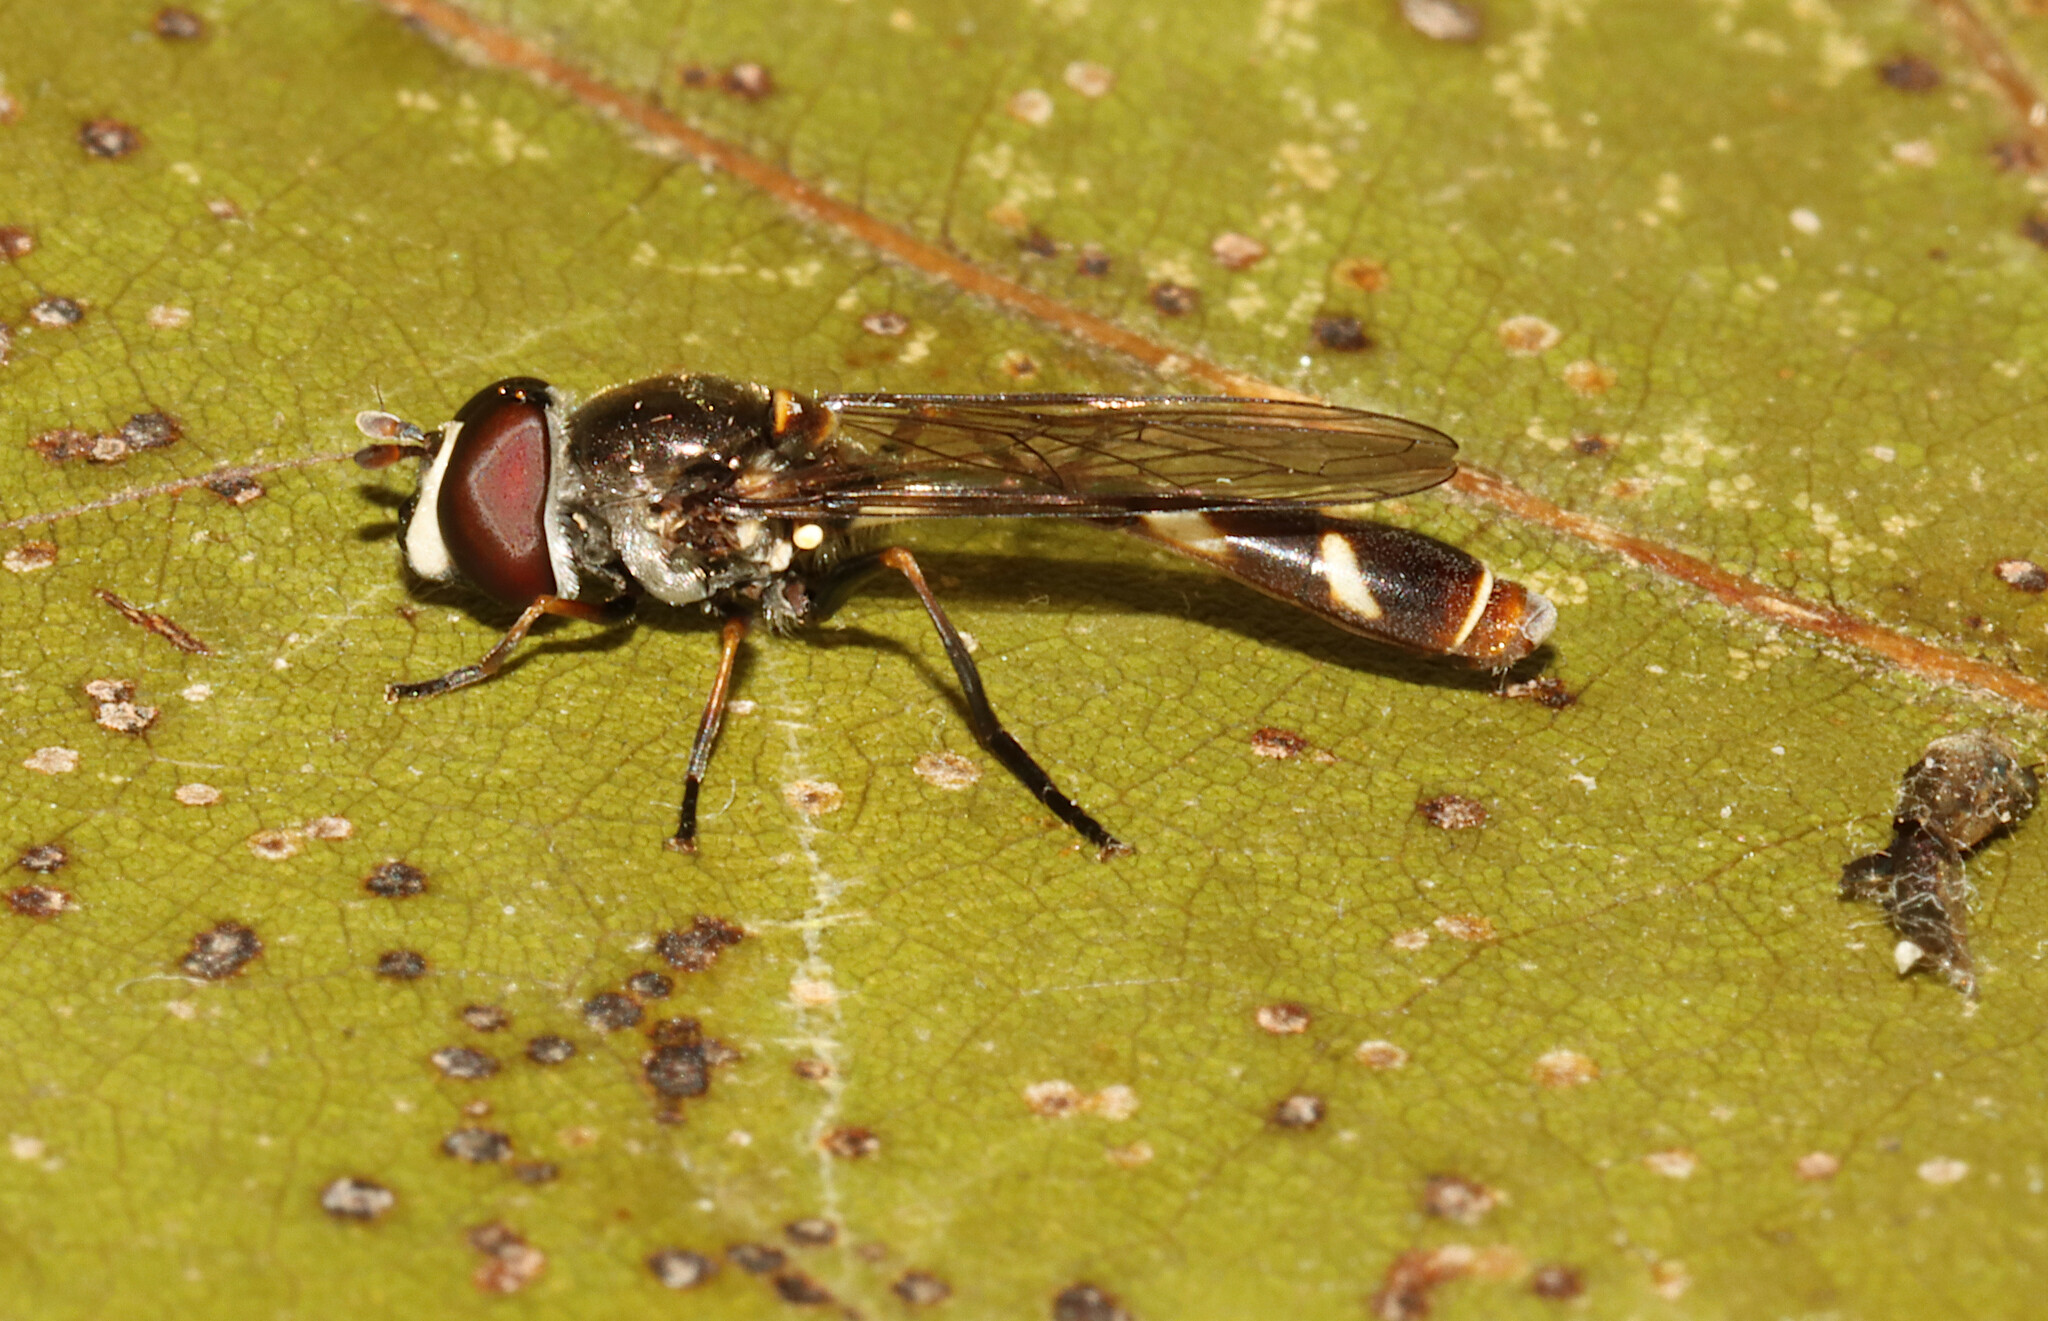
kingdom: Animalia
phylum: Arthropoda
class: Insecta
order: Diptera
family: Syrphidae
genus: Dioprosopa
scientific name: Dioprosopa clavatus
